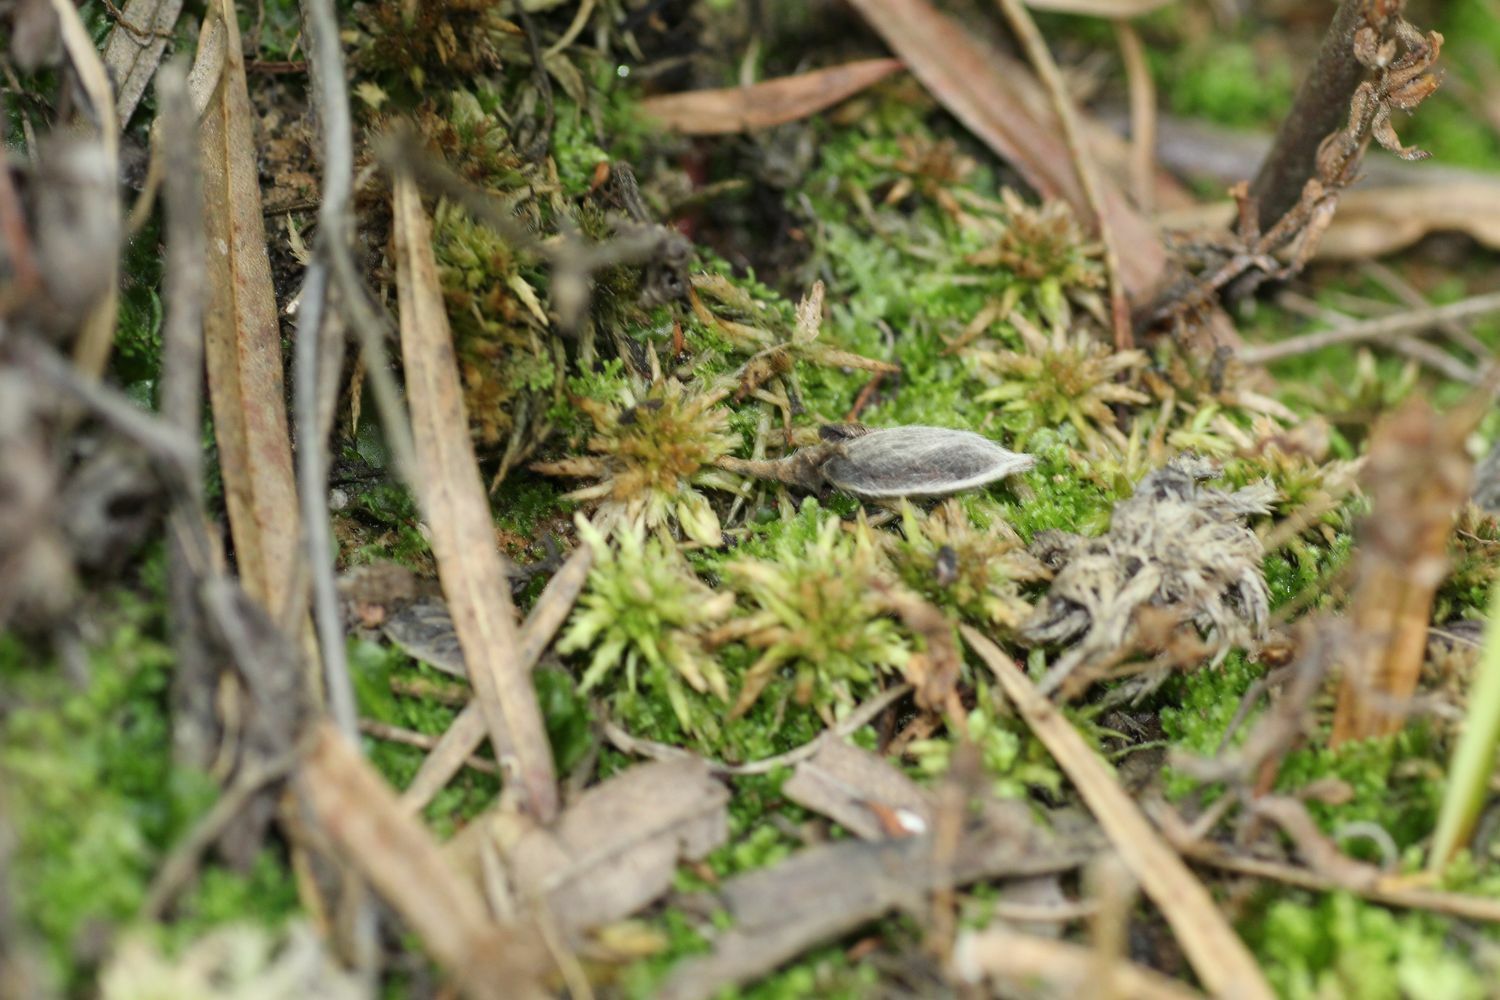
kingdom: Plantae
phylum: Bryophyta
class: Sphagnopsida
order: Sphagnales
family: Sphagnaceae
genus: Sphagnum
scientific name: Sphagnum novozelandicum
